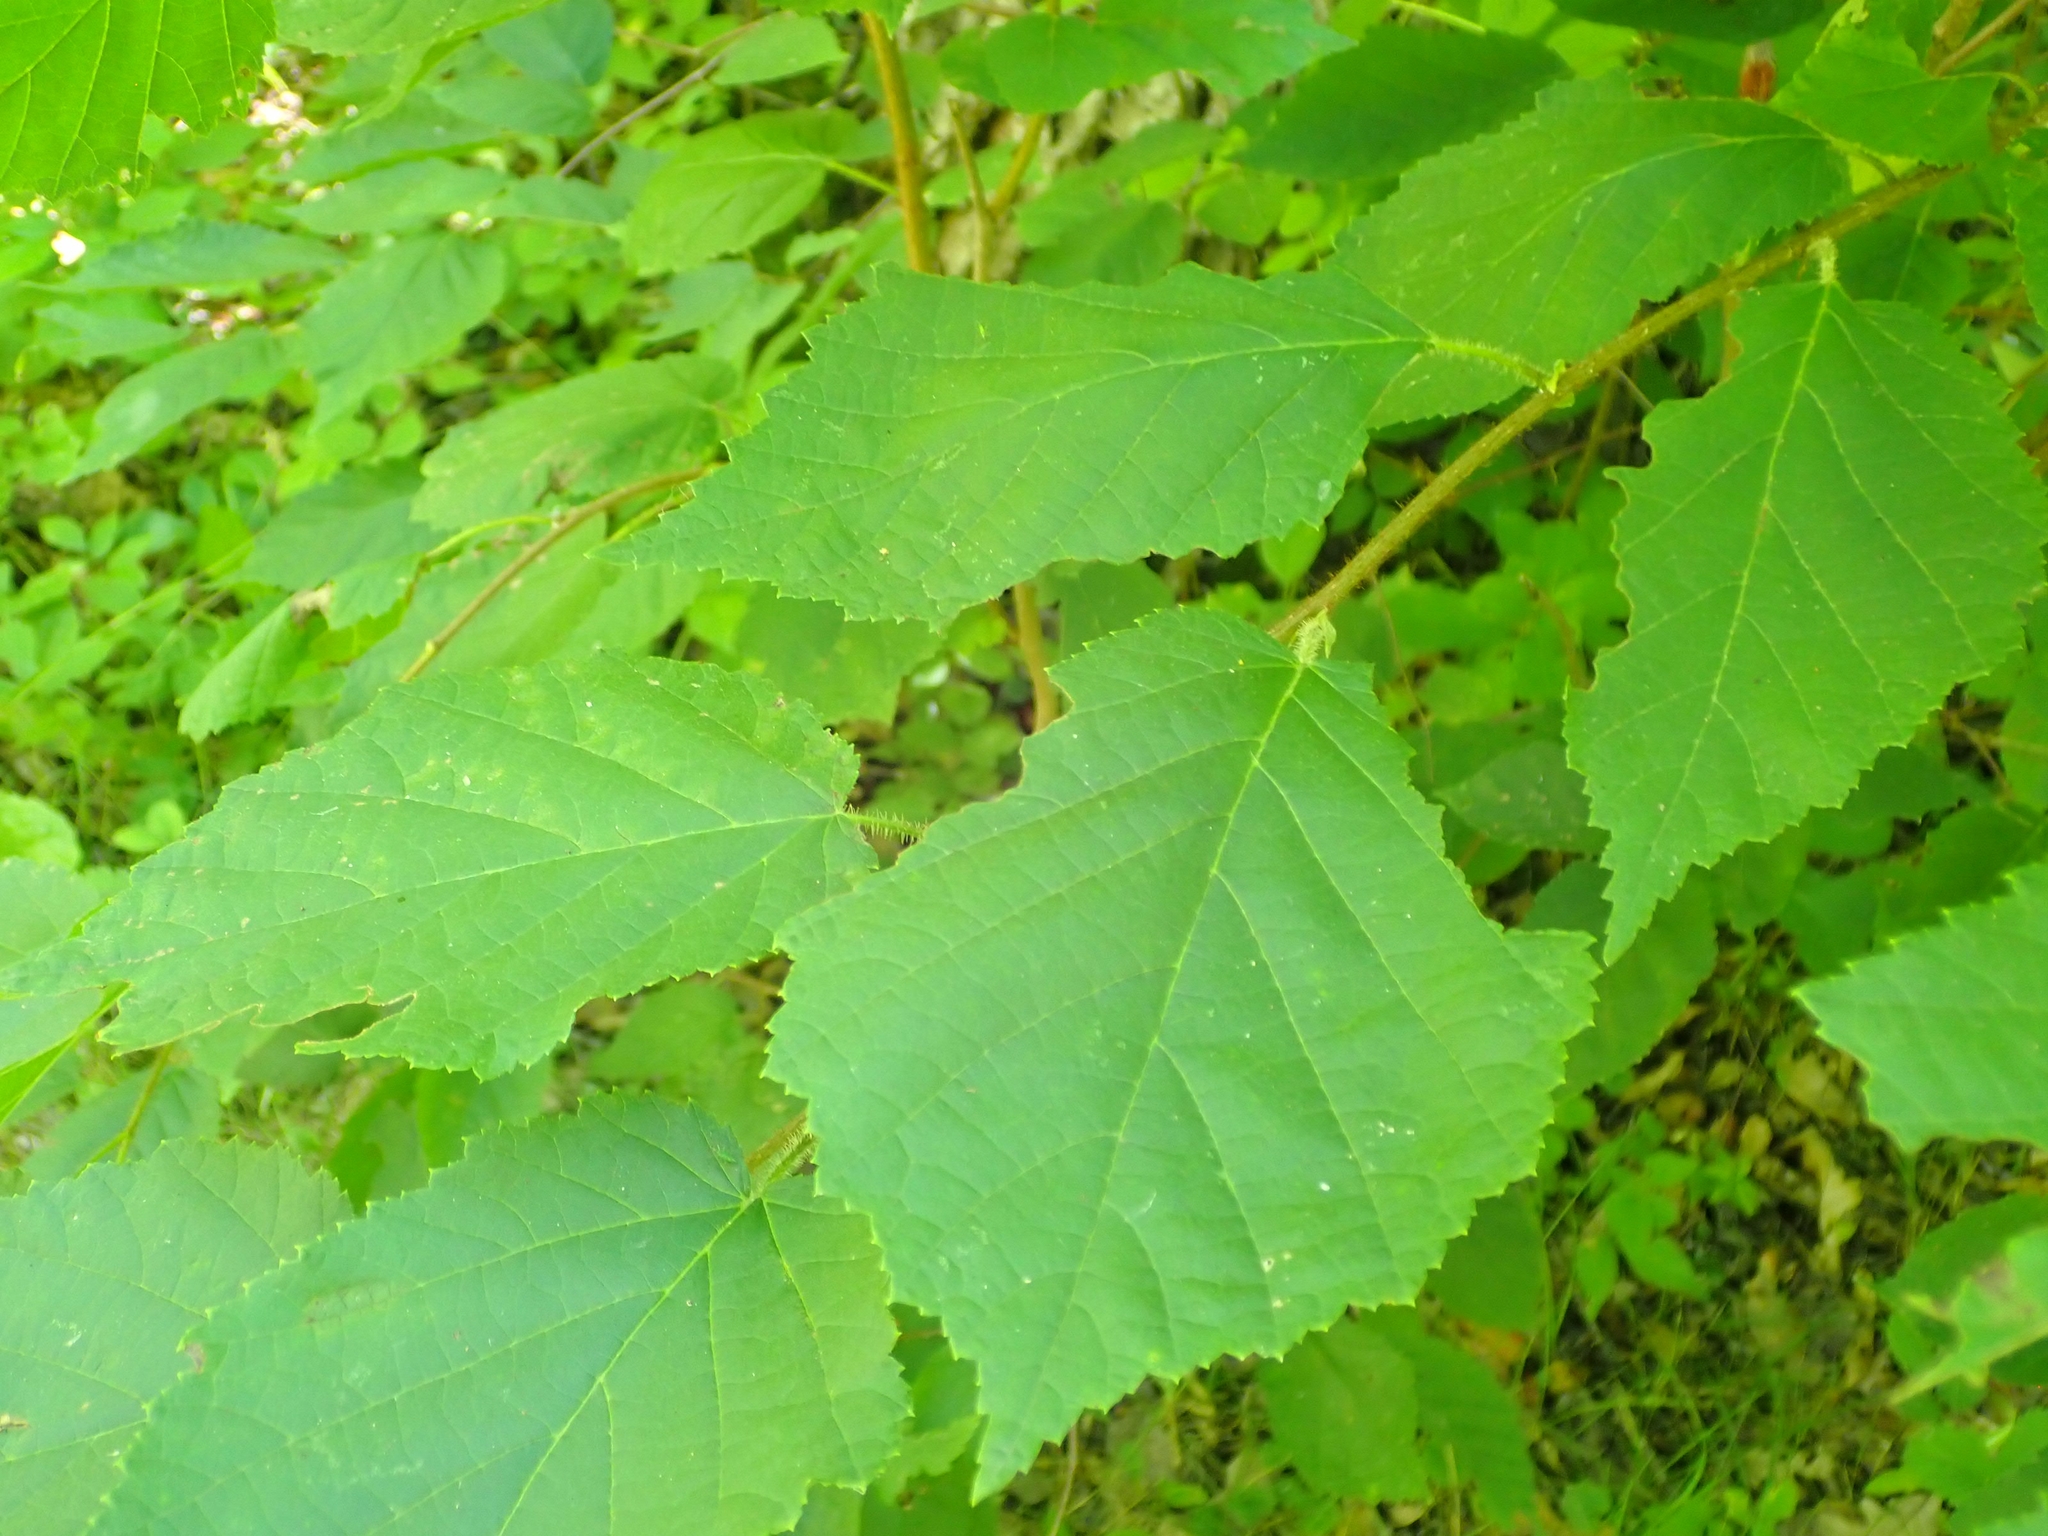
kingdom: Plantae
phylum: Tracheophyta
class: Magnoliopsida
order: Fagales
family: Betulaceae
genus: Corylus
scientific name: Corylus americana
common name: American hazel
